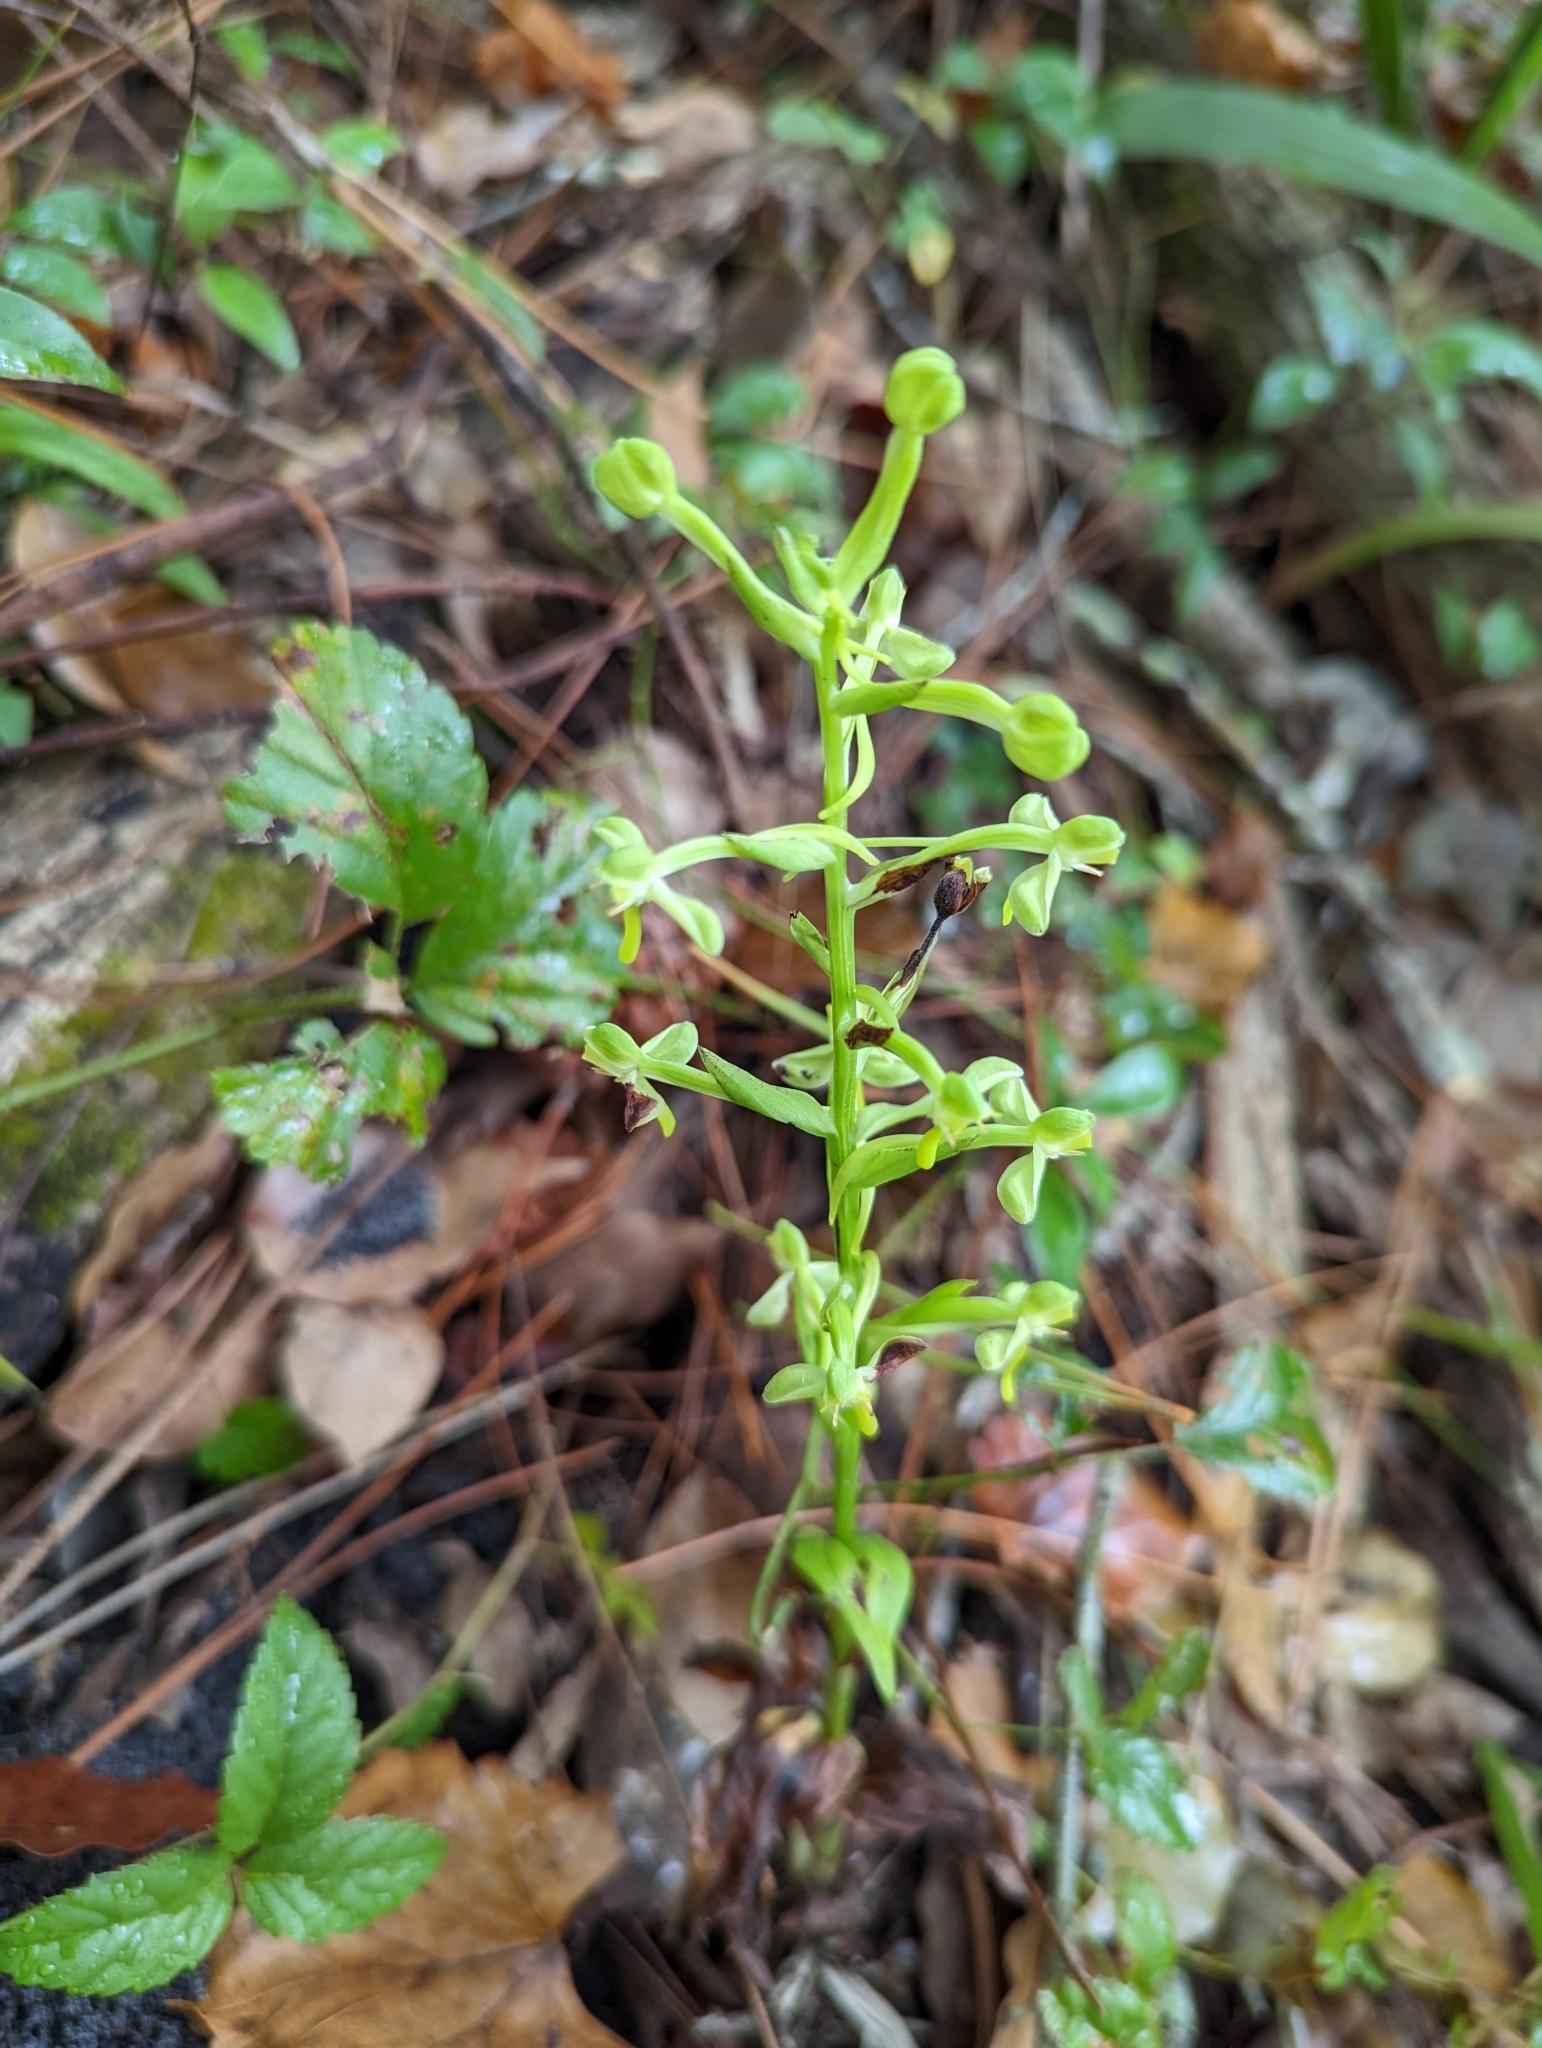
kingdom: Plantae
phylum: Tracheophyta
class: Liliopsida
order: Asparagales
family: Orchidaceae
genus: Habenaria
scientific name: Habenaria floribunda
